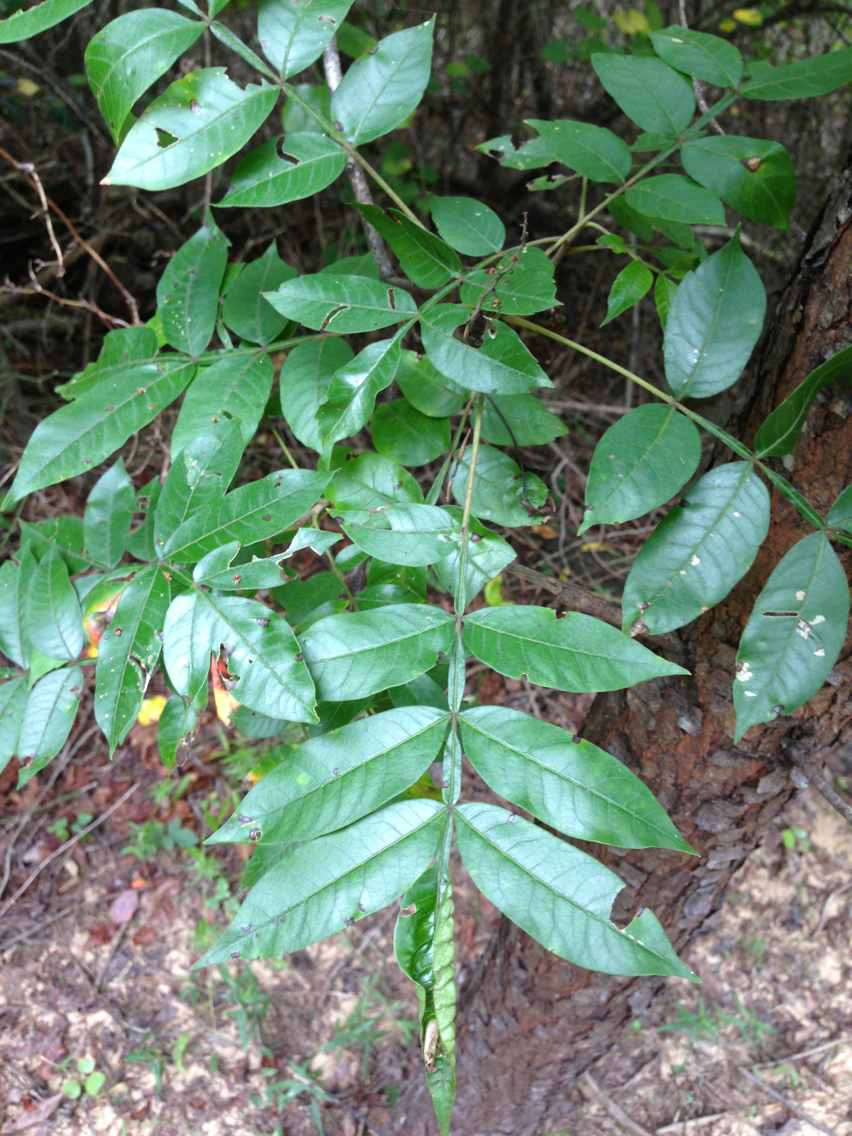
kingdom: Plantae
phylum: Tracheophyta
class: Magnoliopsida
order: Sapindales
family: Anacardiaceae
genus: Rhus
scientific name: Rhus copallina
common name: Shining sumac
